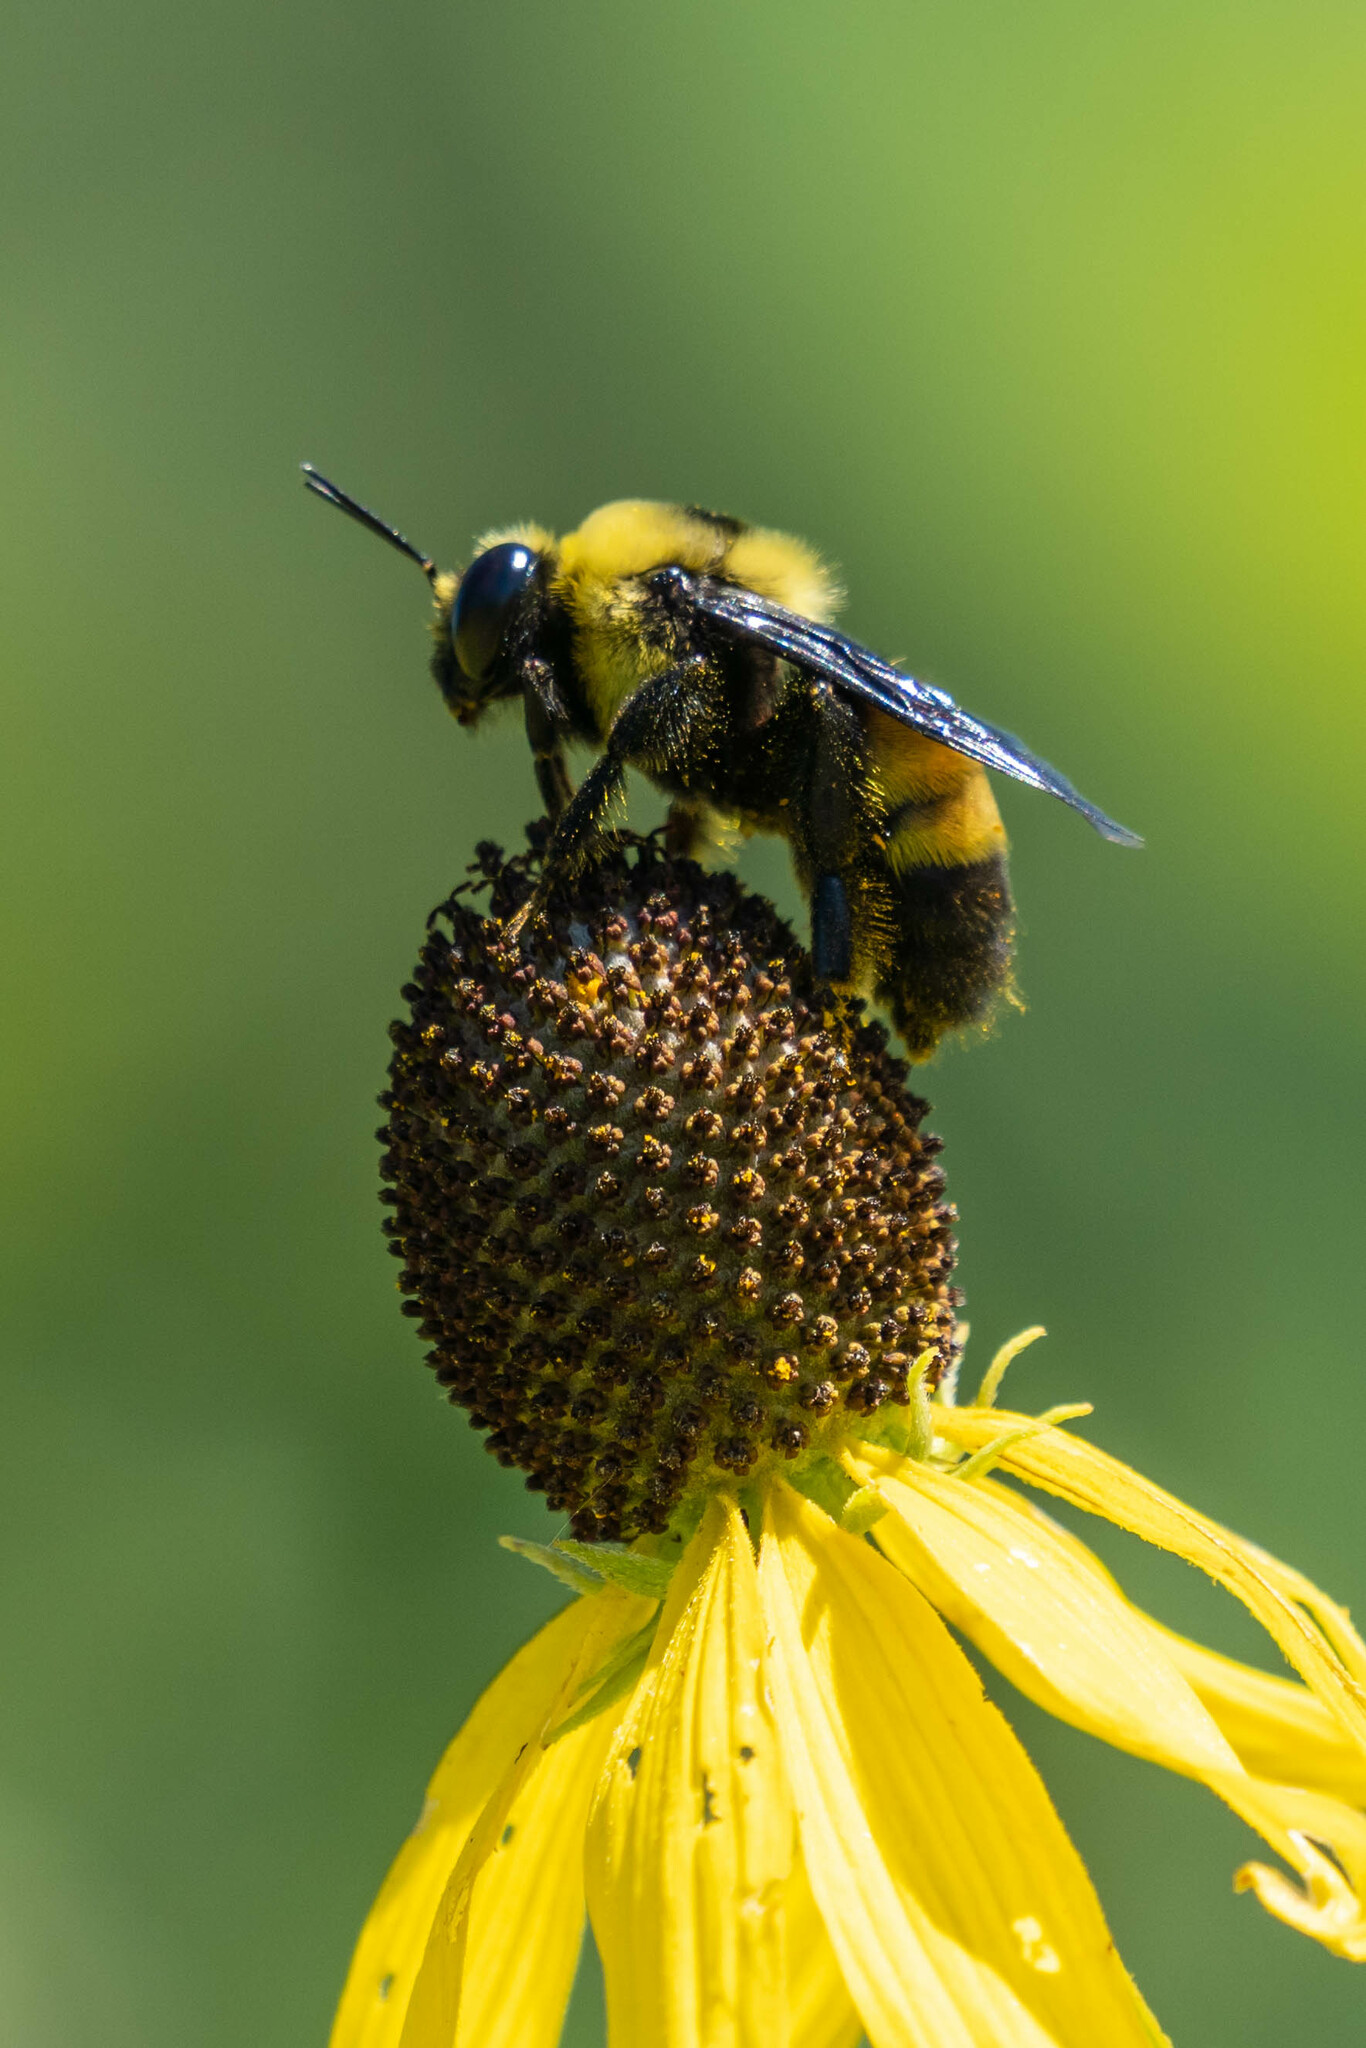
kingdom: Animalia
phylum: Arthropoda
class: Insecta
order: Hymenoptera
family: Apidae
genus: Bombus
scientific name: Bombus auricomus
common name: Black and gold bumble bee
